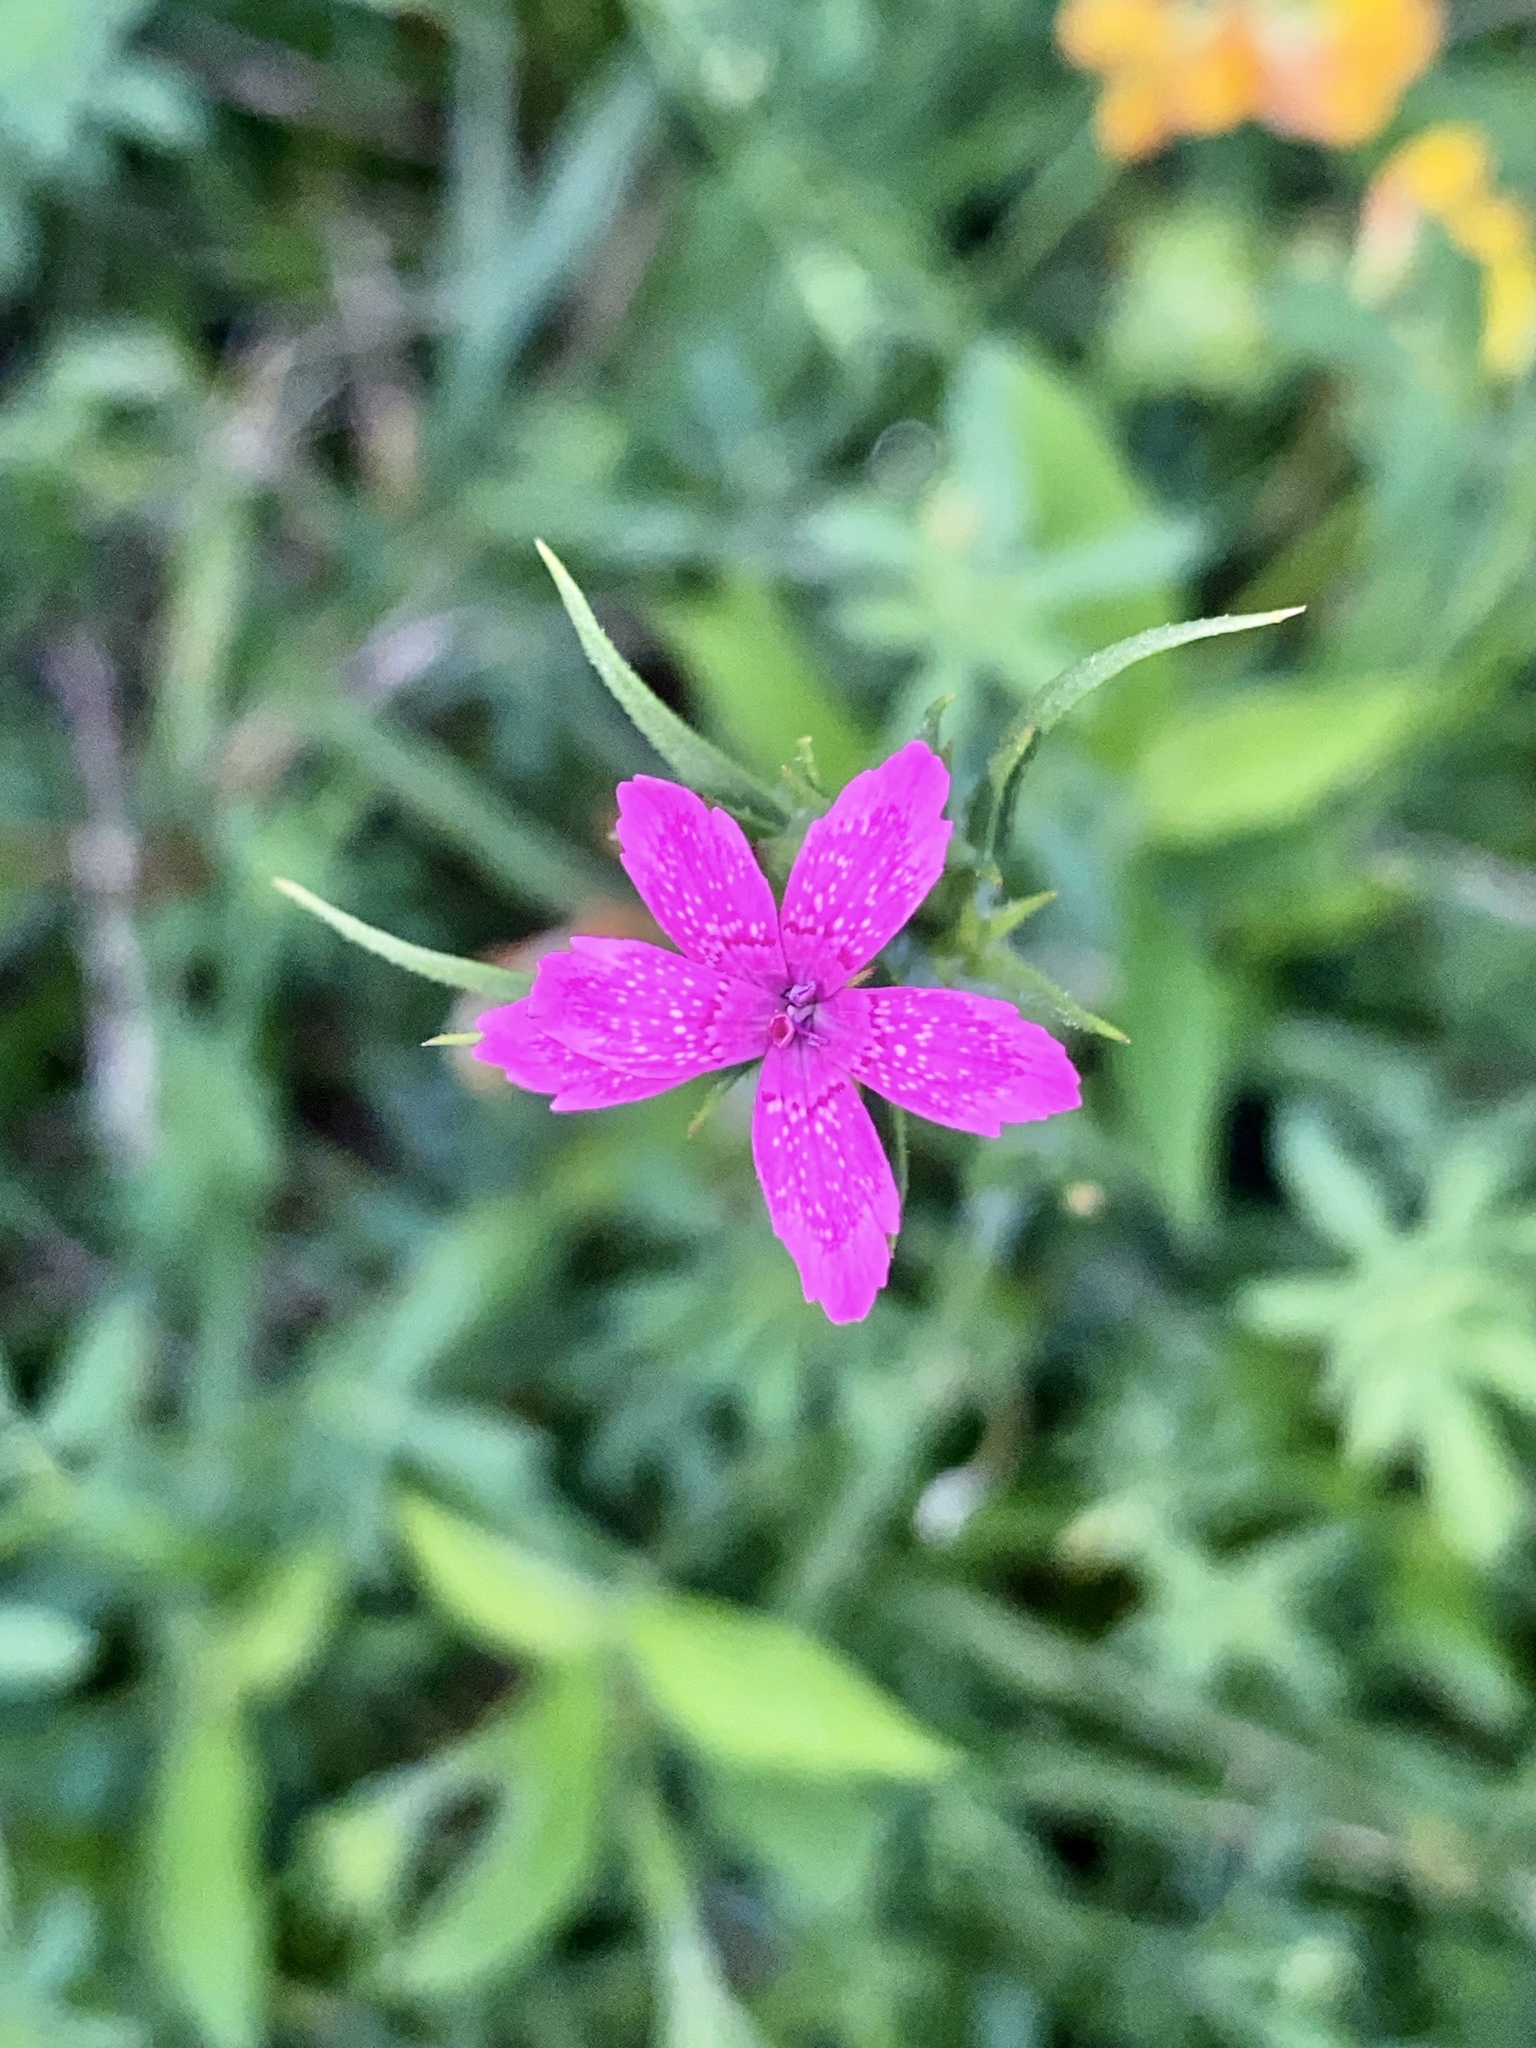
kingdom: Plantae
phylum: Tracheophyta
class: Magnoliopsida
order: Caryophyllales
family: Caryophyllaceae
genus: Dianthus
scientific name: Dianthus armeria
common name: Deptford pink
